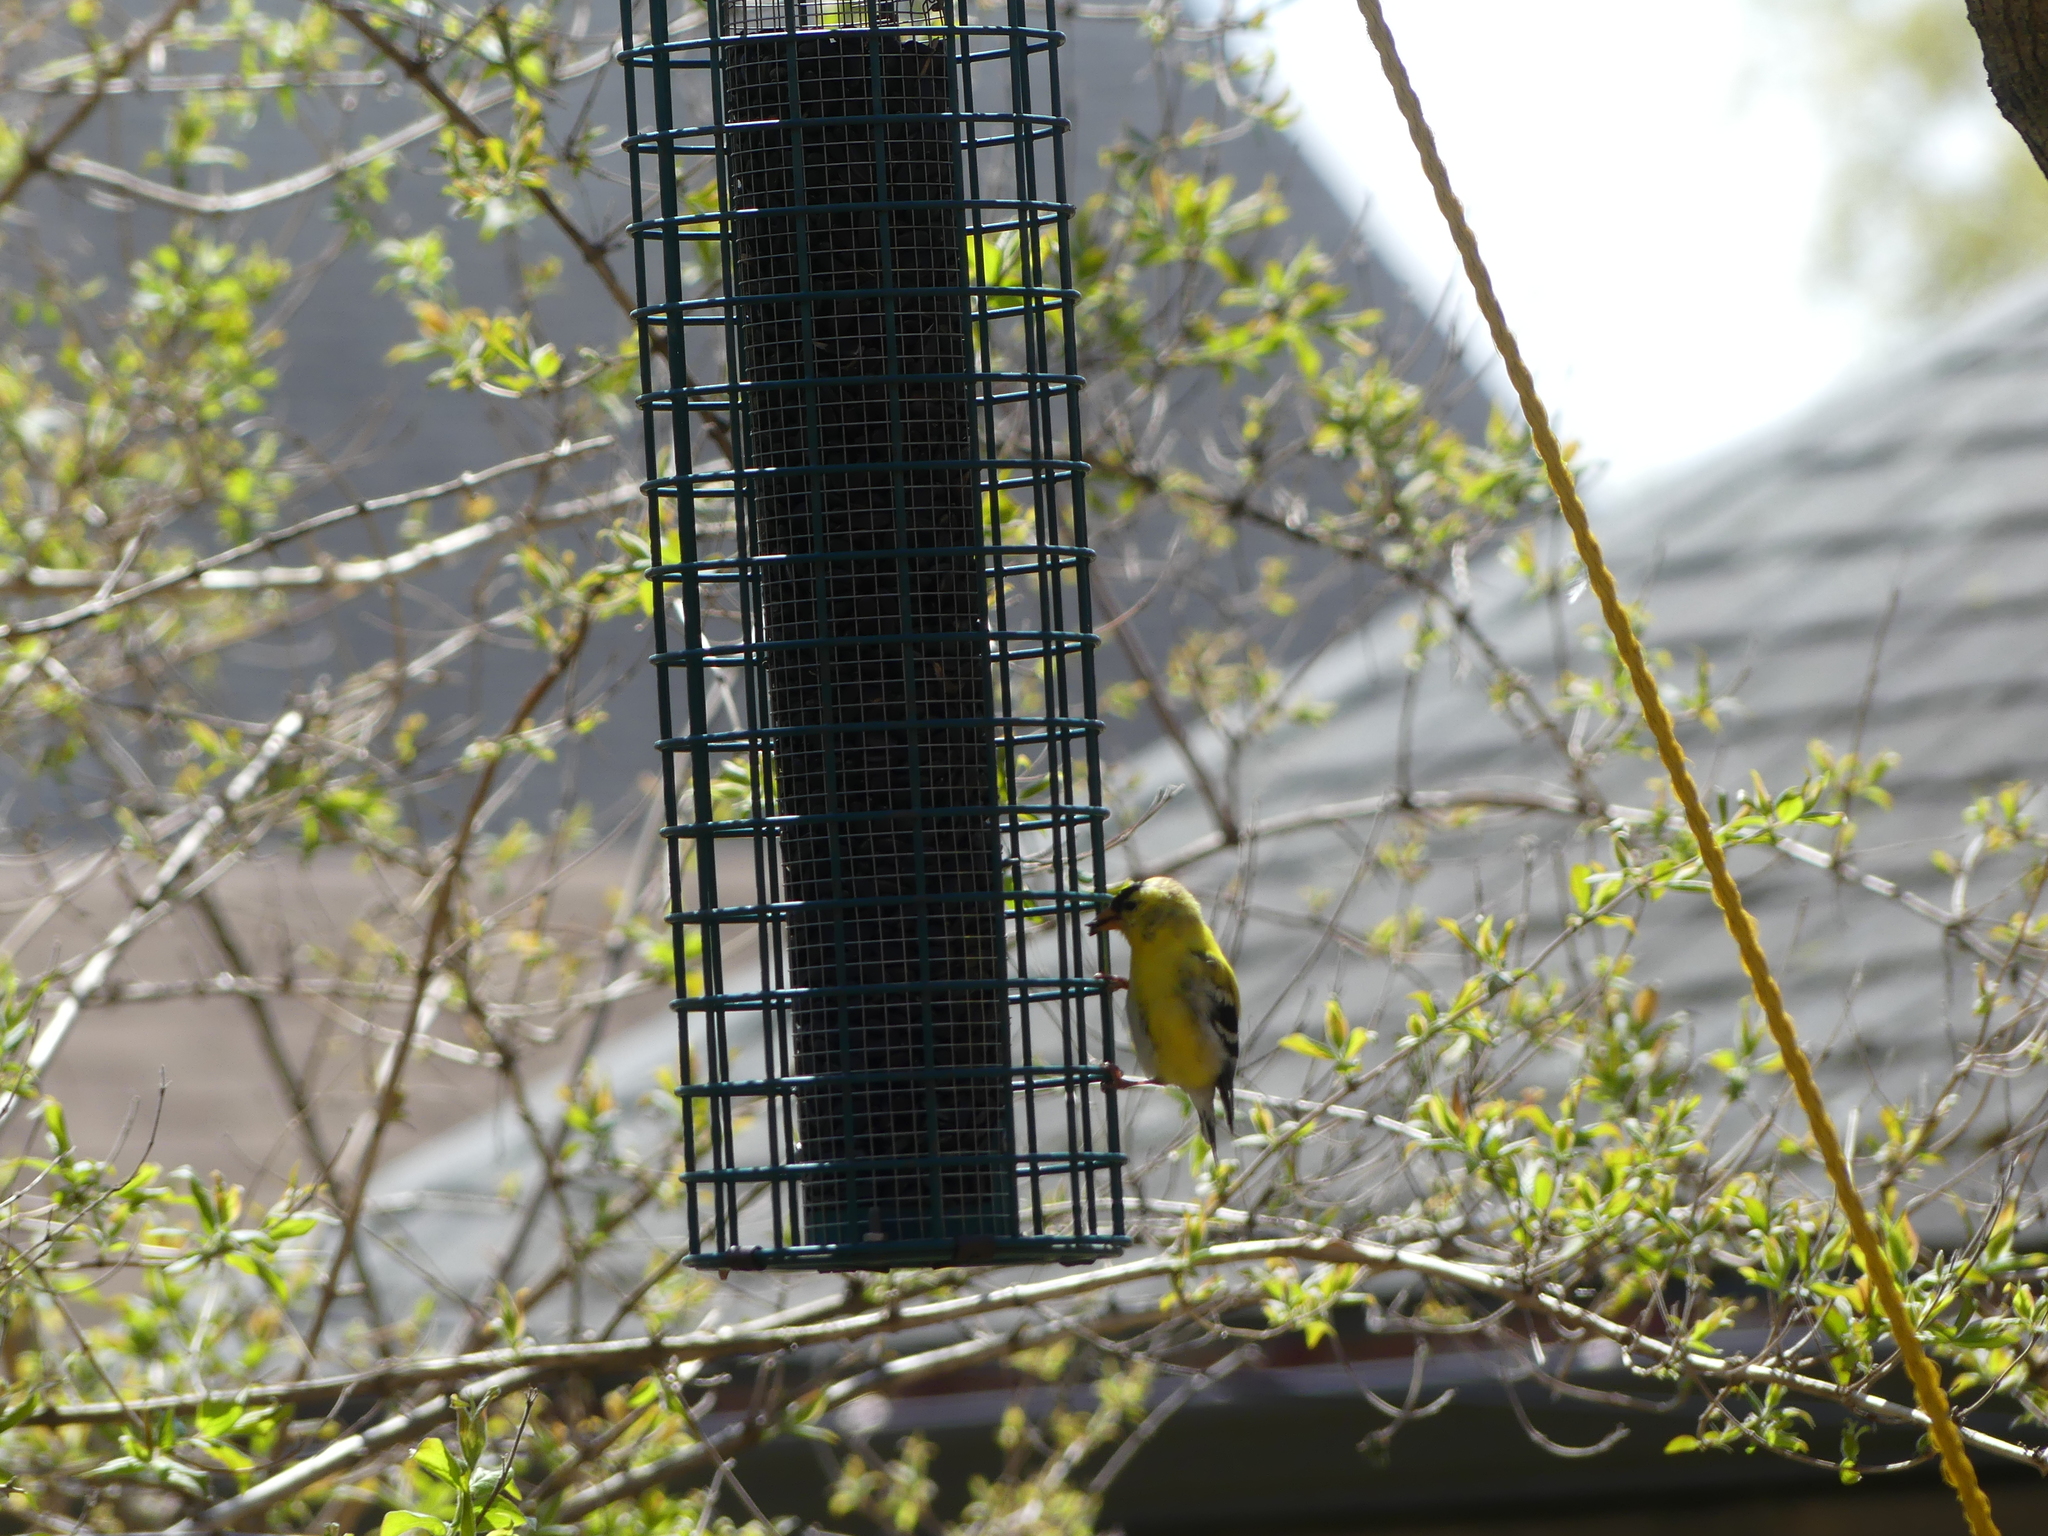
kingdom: Animalia
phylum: Chordata
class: Aves
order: Passeriformes
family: Fringillidae
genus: Spinus
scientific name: Spinus tristis
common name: American goldfinch
